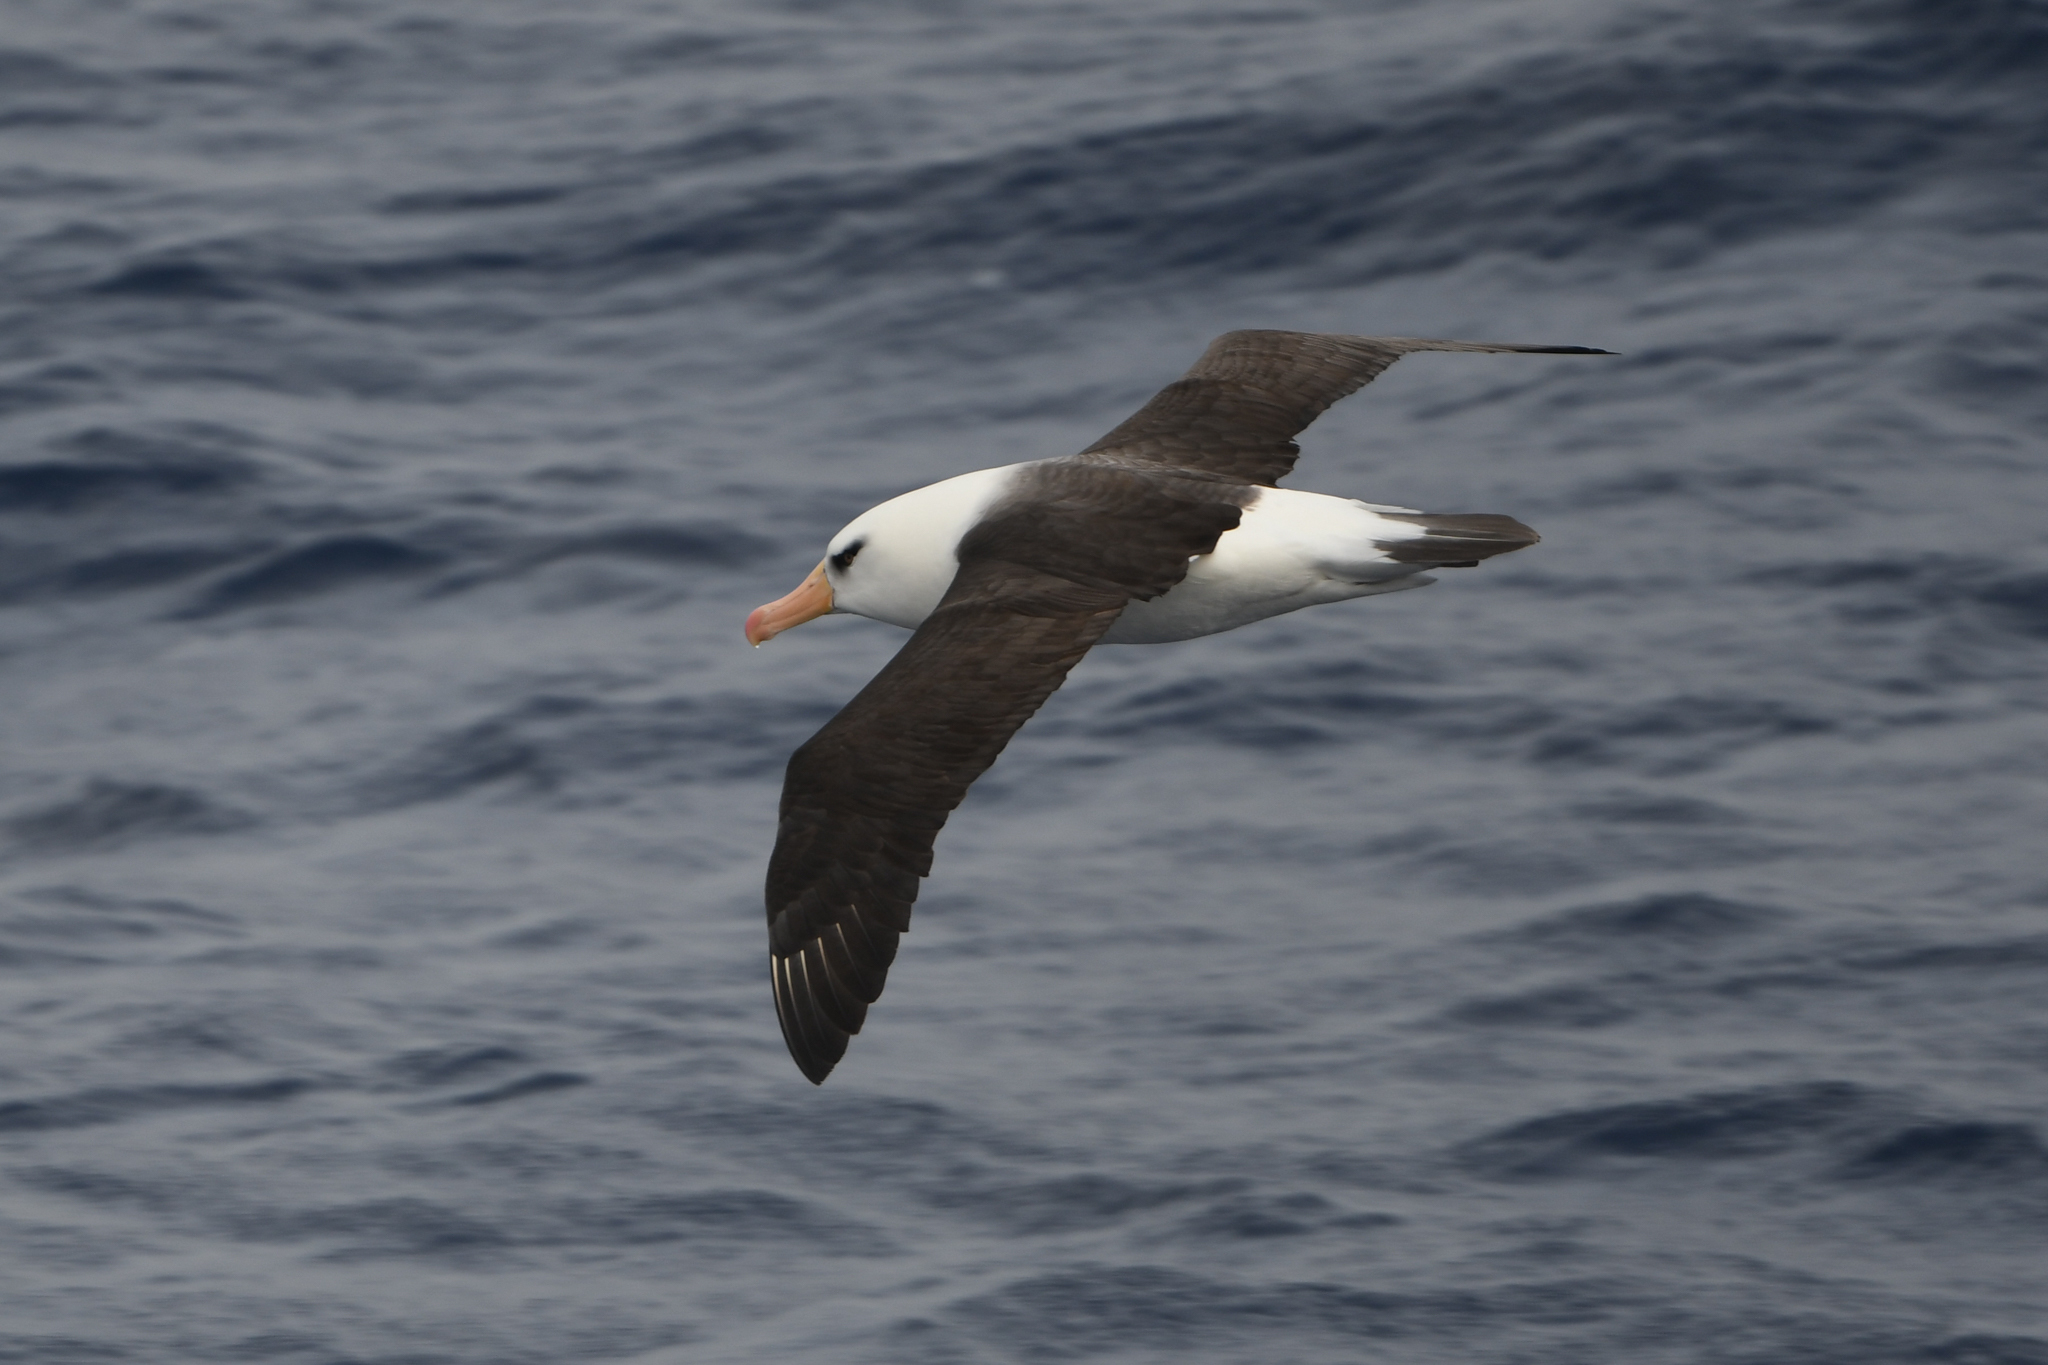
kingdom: Animalia
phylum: Chordata
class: Aves
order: Procellariiformes
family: Diomedeidae
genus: Thalassarche
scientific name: Thalassarche impavida
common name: Campbell albatross
